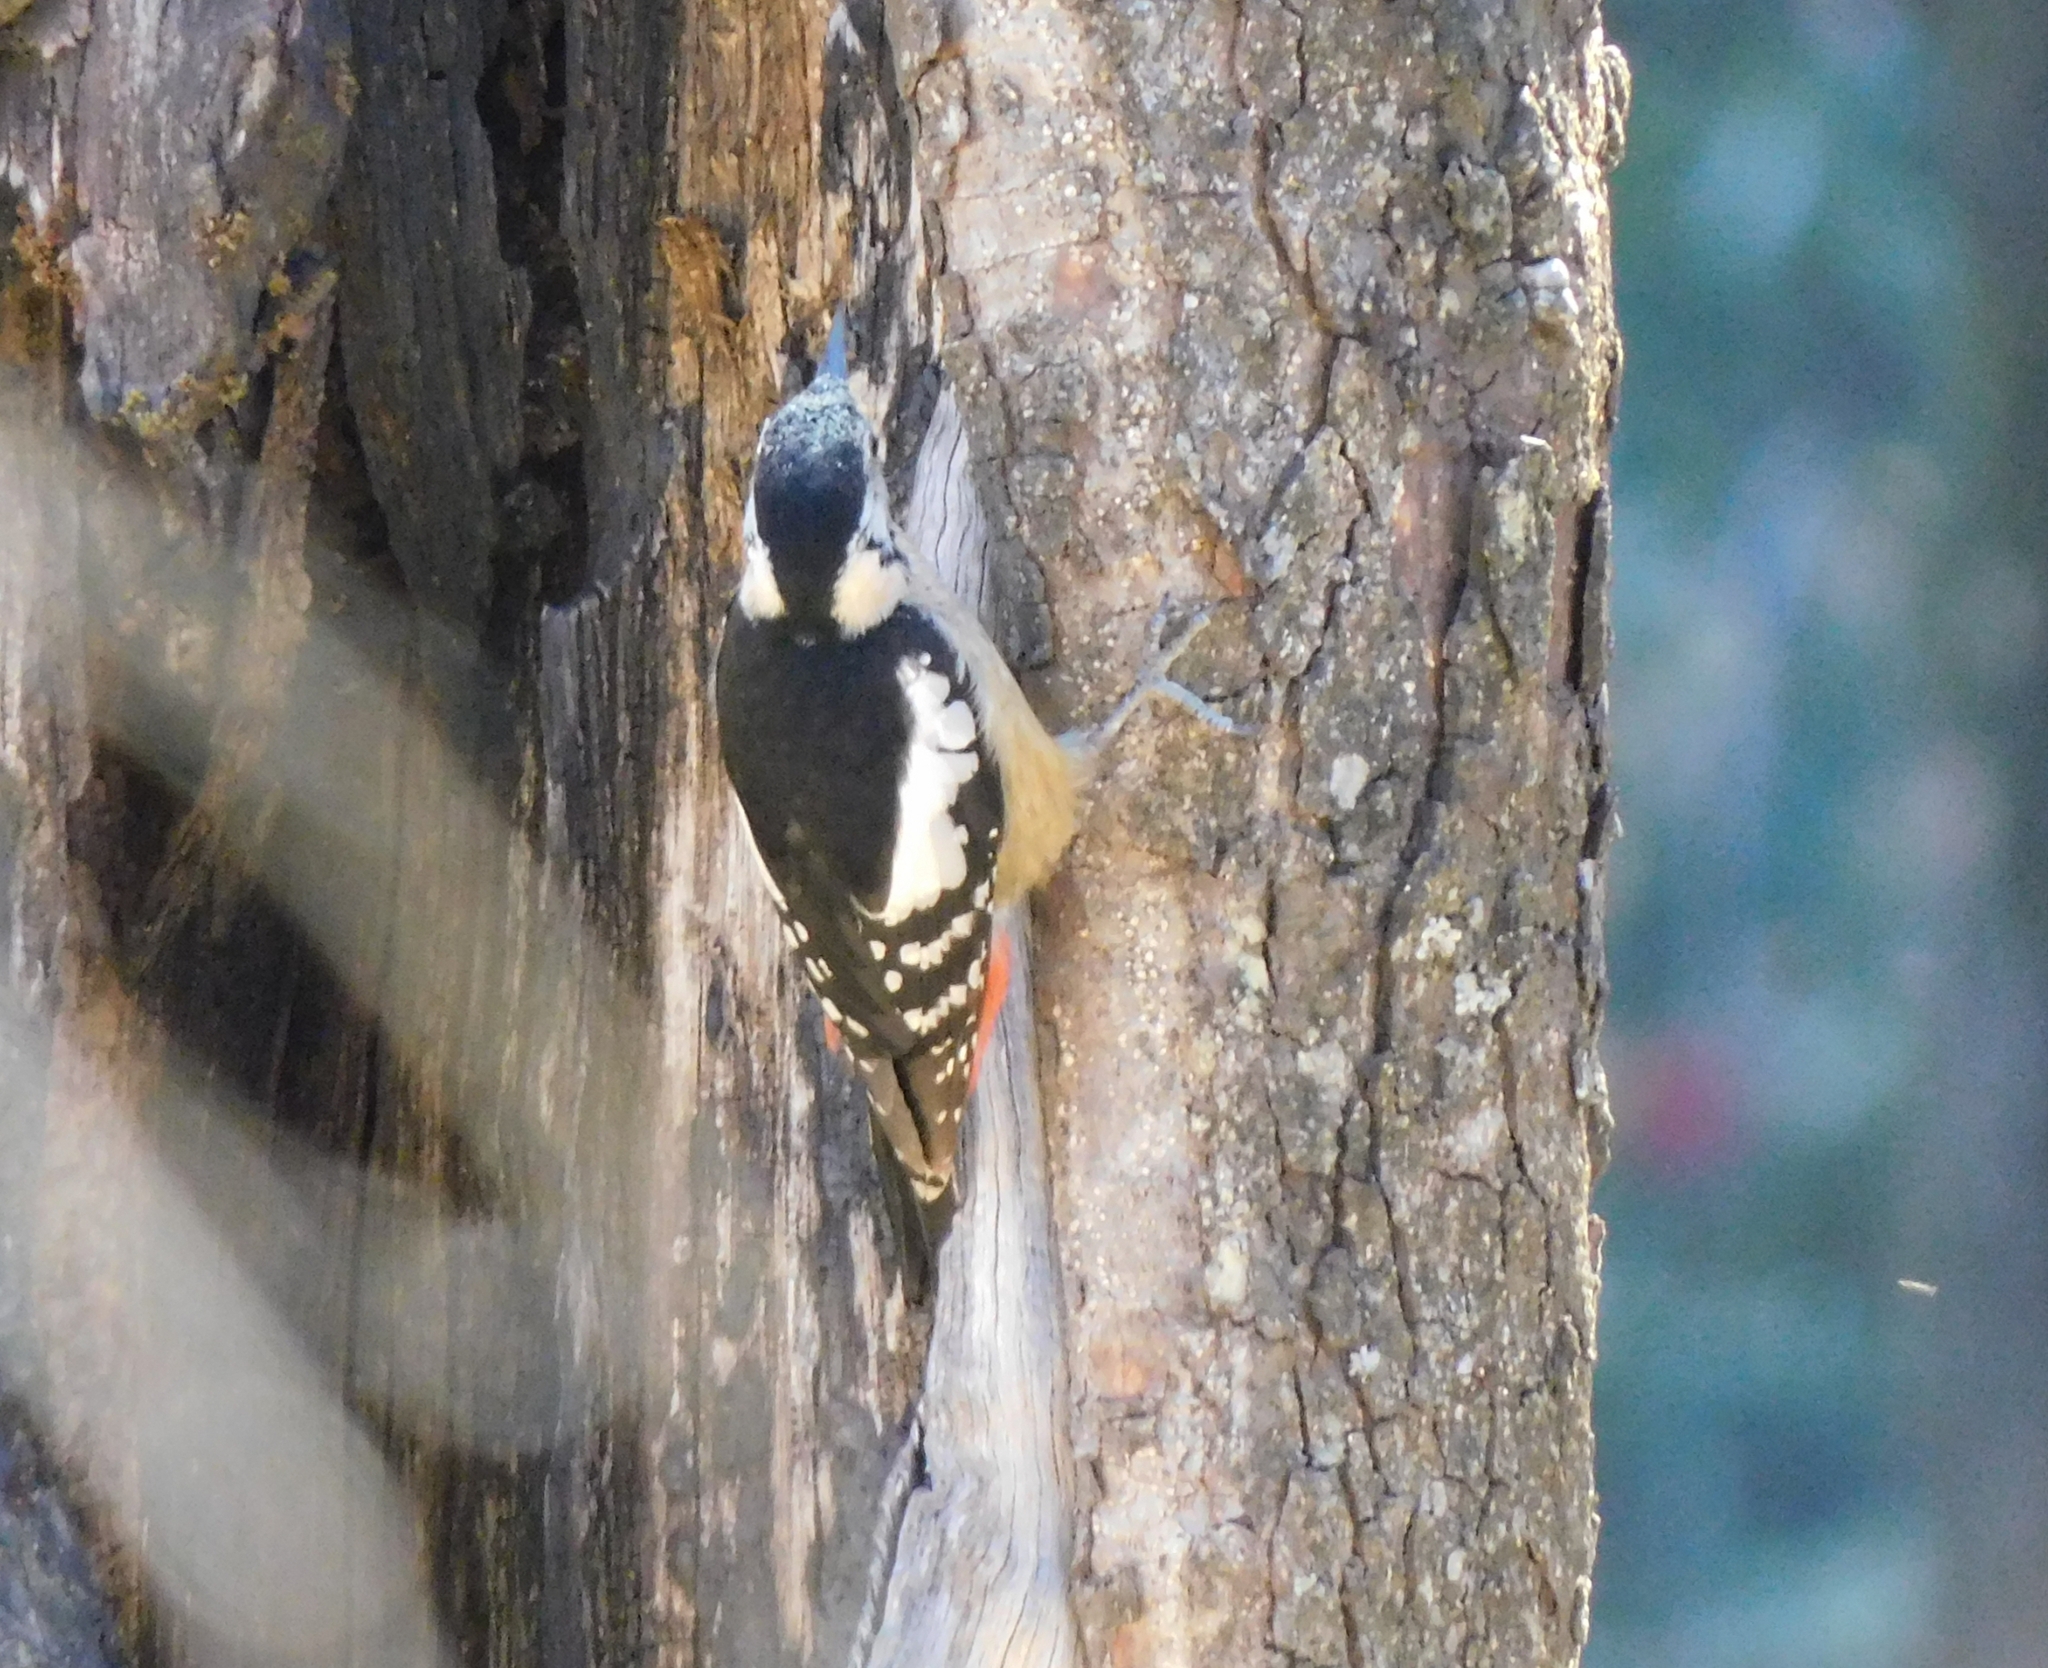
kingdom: Animalia
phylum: Chordata
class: Aves
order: Piciformes
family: Picidae
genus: Dendrocopos
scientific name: Dendrocopos himalayensis
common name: Himalayan woodpecker
